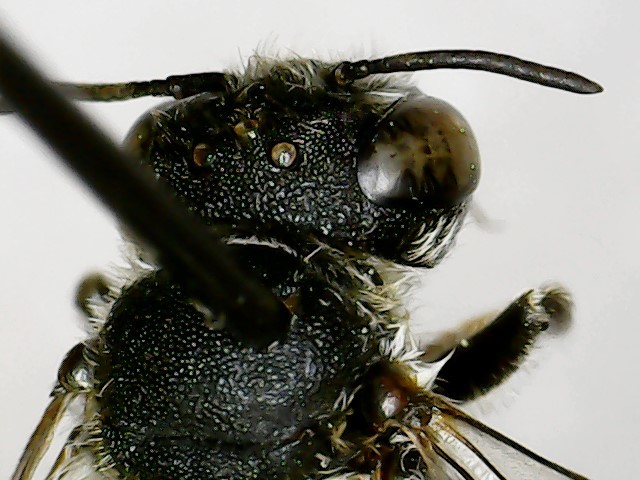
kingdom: Animalia
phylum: Arthropoda
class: Insecta
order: Hymenoptera
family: Megachilidae
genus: Megachile
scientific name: Megachile rotundata
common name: Alfalfa leafcutting bee
